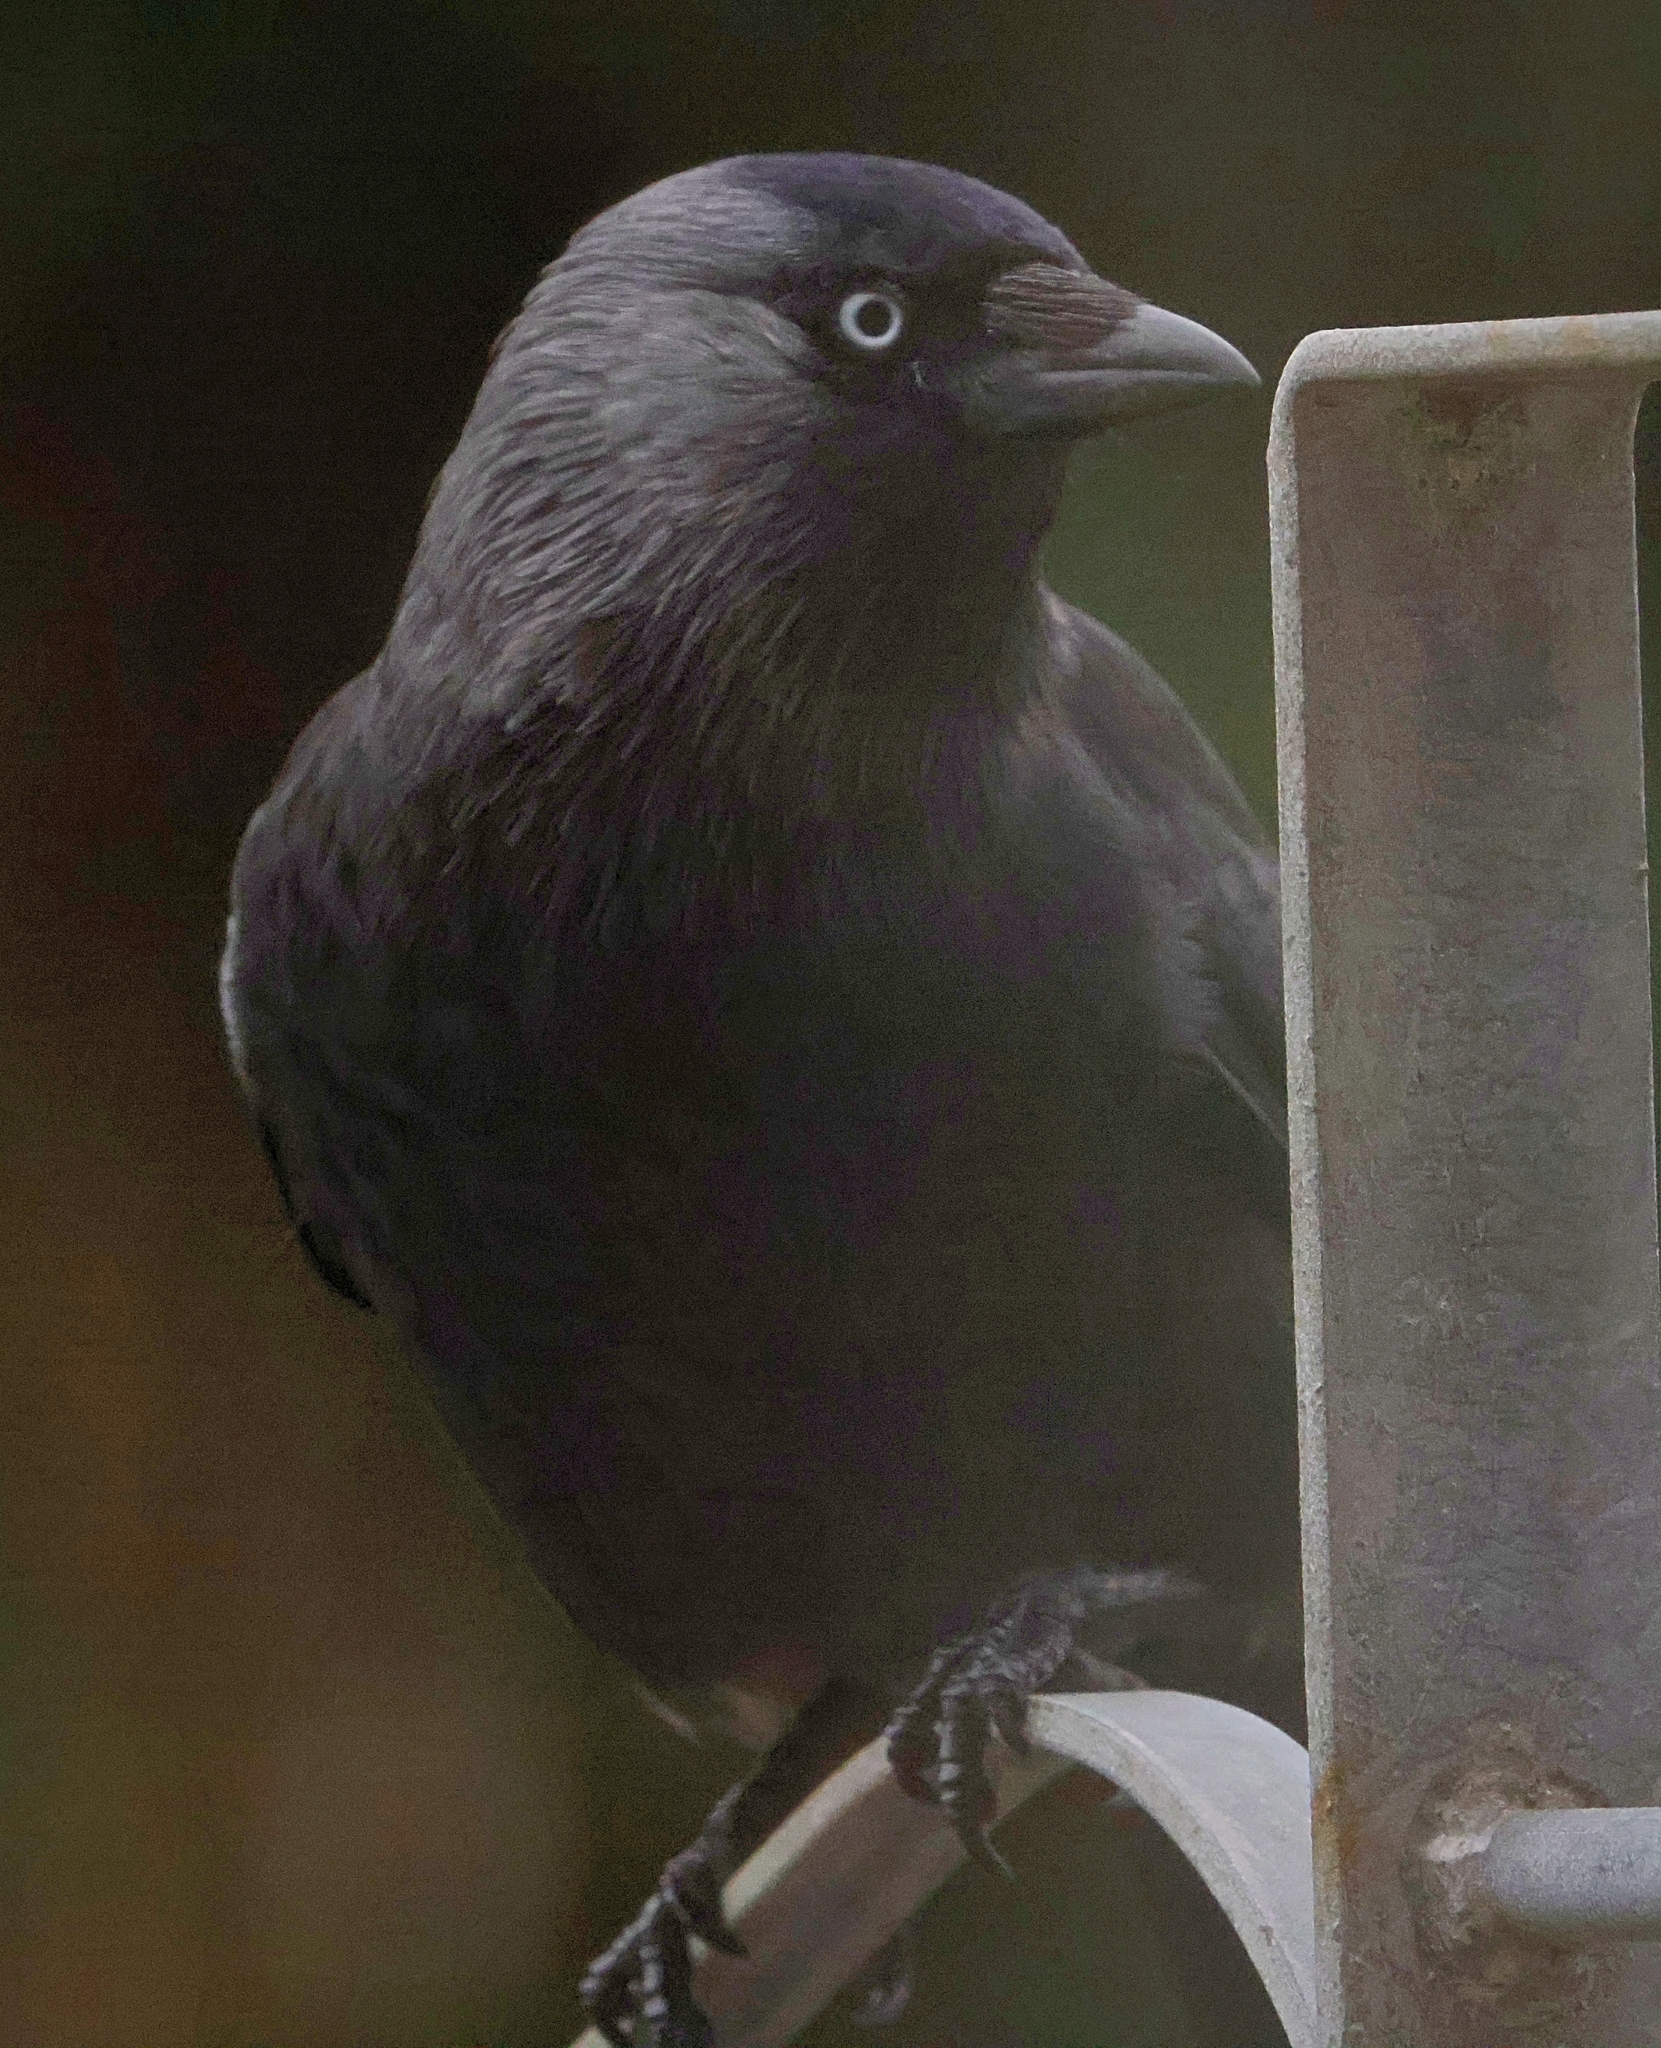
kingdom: Animalia
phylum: Chordata
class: Aves
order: Passeriformes
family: Corvidae
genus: Coloeus
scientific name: Coloeus monedula
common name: Western jackdaw
